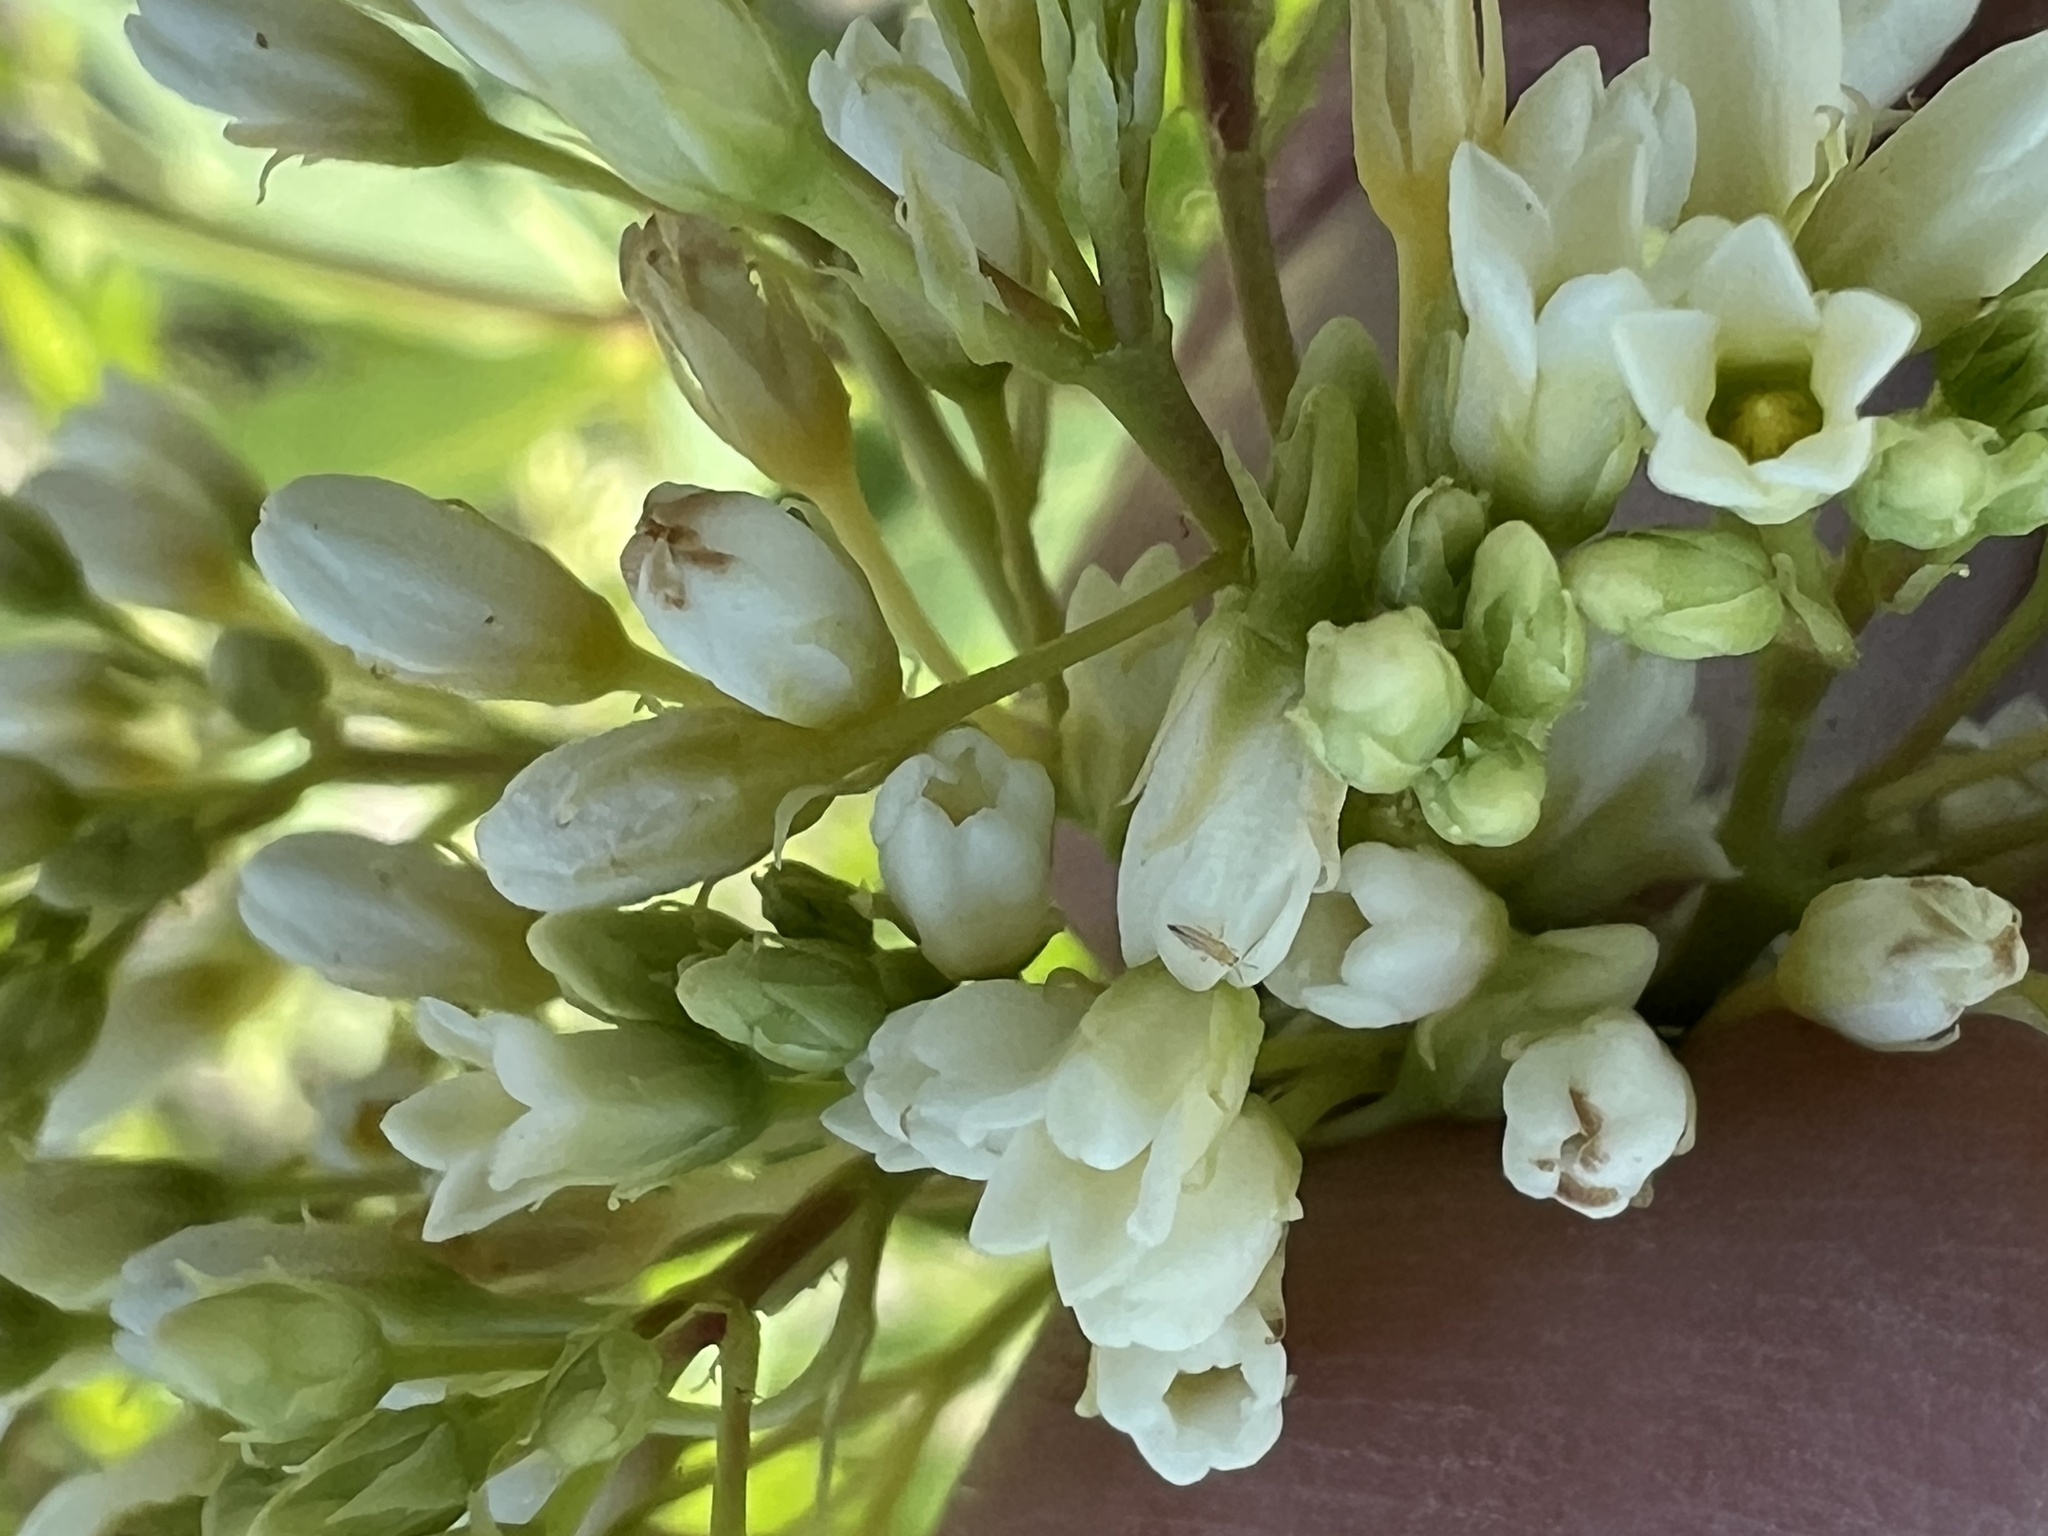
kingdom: Plantae
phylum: Tracheophyta
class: Magnoliopsida
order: Gentianales
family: Apocynaceae
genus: Apocynum
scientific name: Apocynum cannabinum
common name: Hemp dogbane
